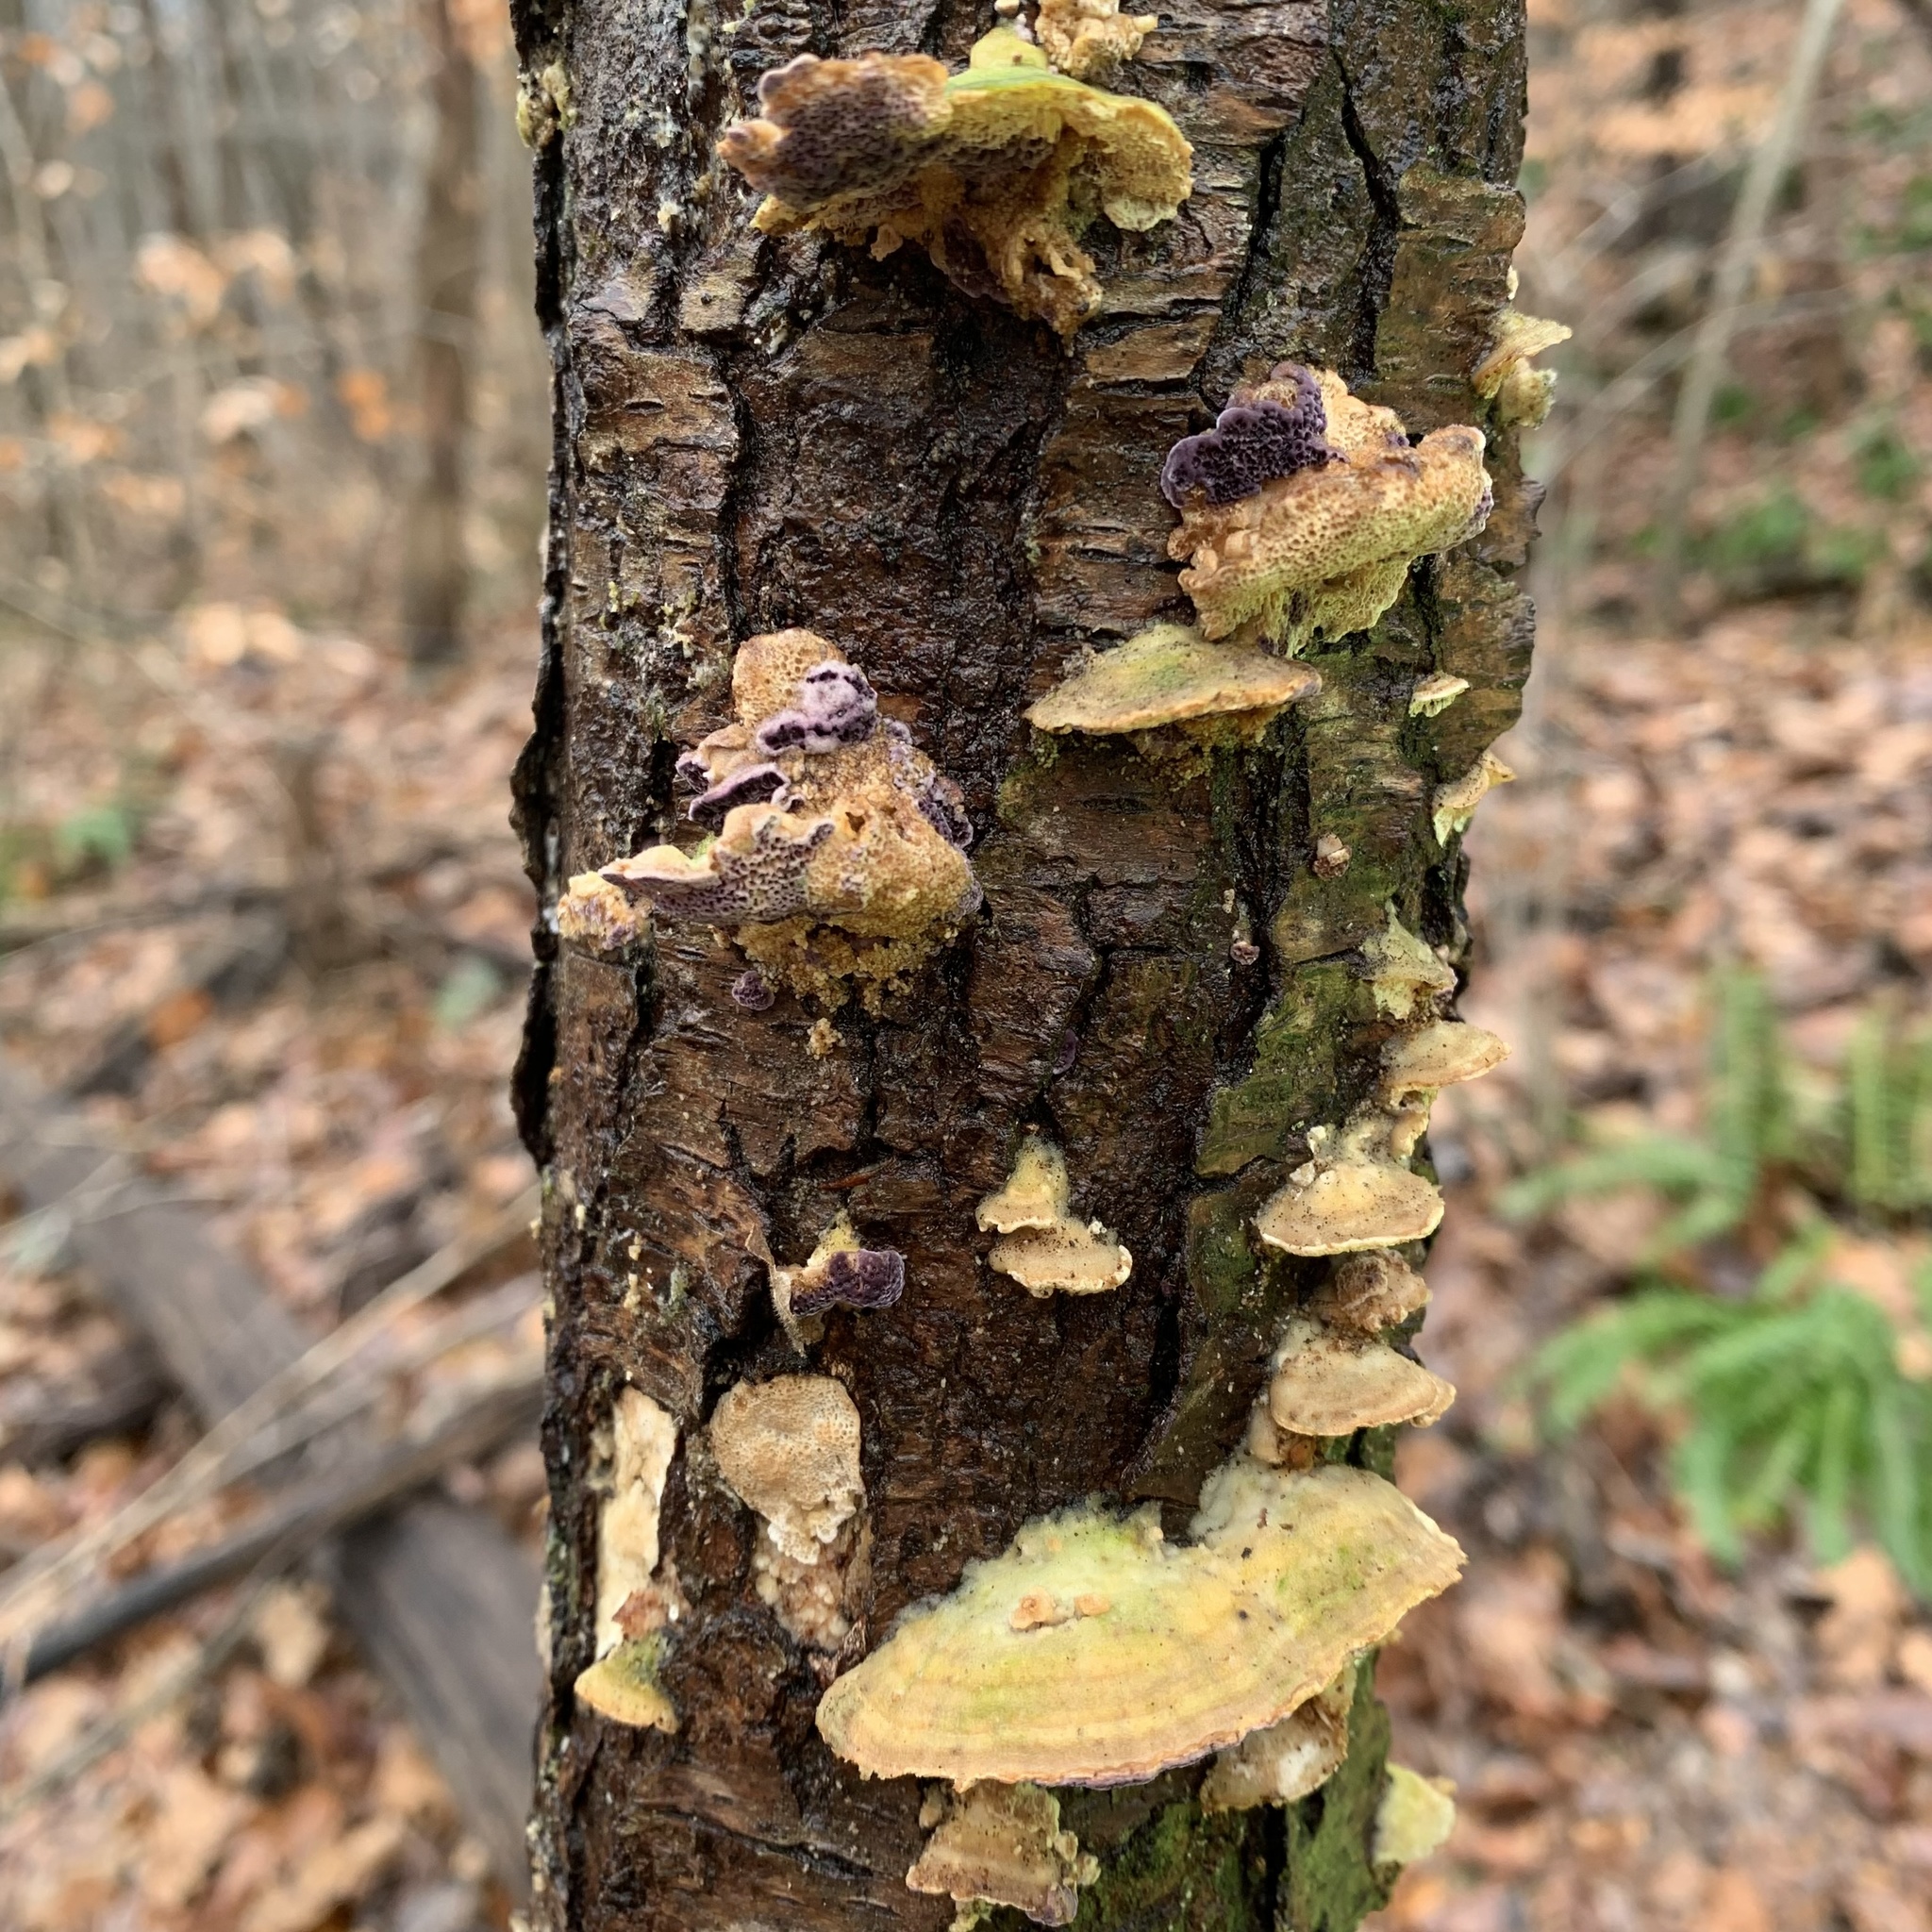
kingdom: Fungi
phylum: Basidiomycota
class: Agaricomycetes
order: Hymenochaetales
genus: Trichaptum
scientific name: Trichaptum biforme
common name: Violet-toothed polypore
